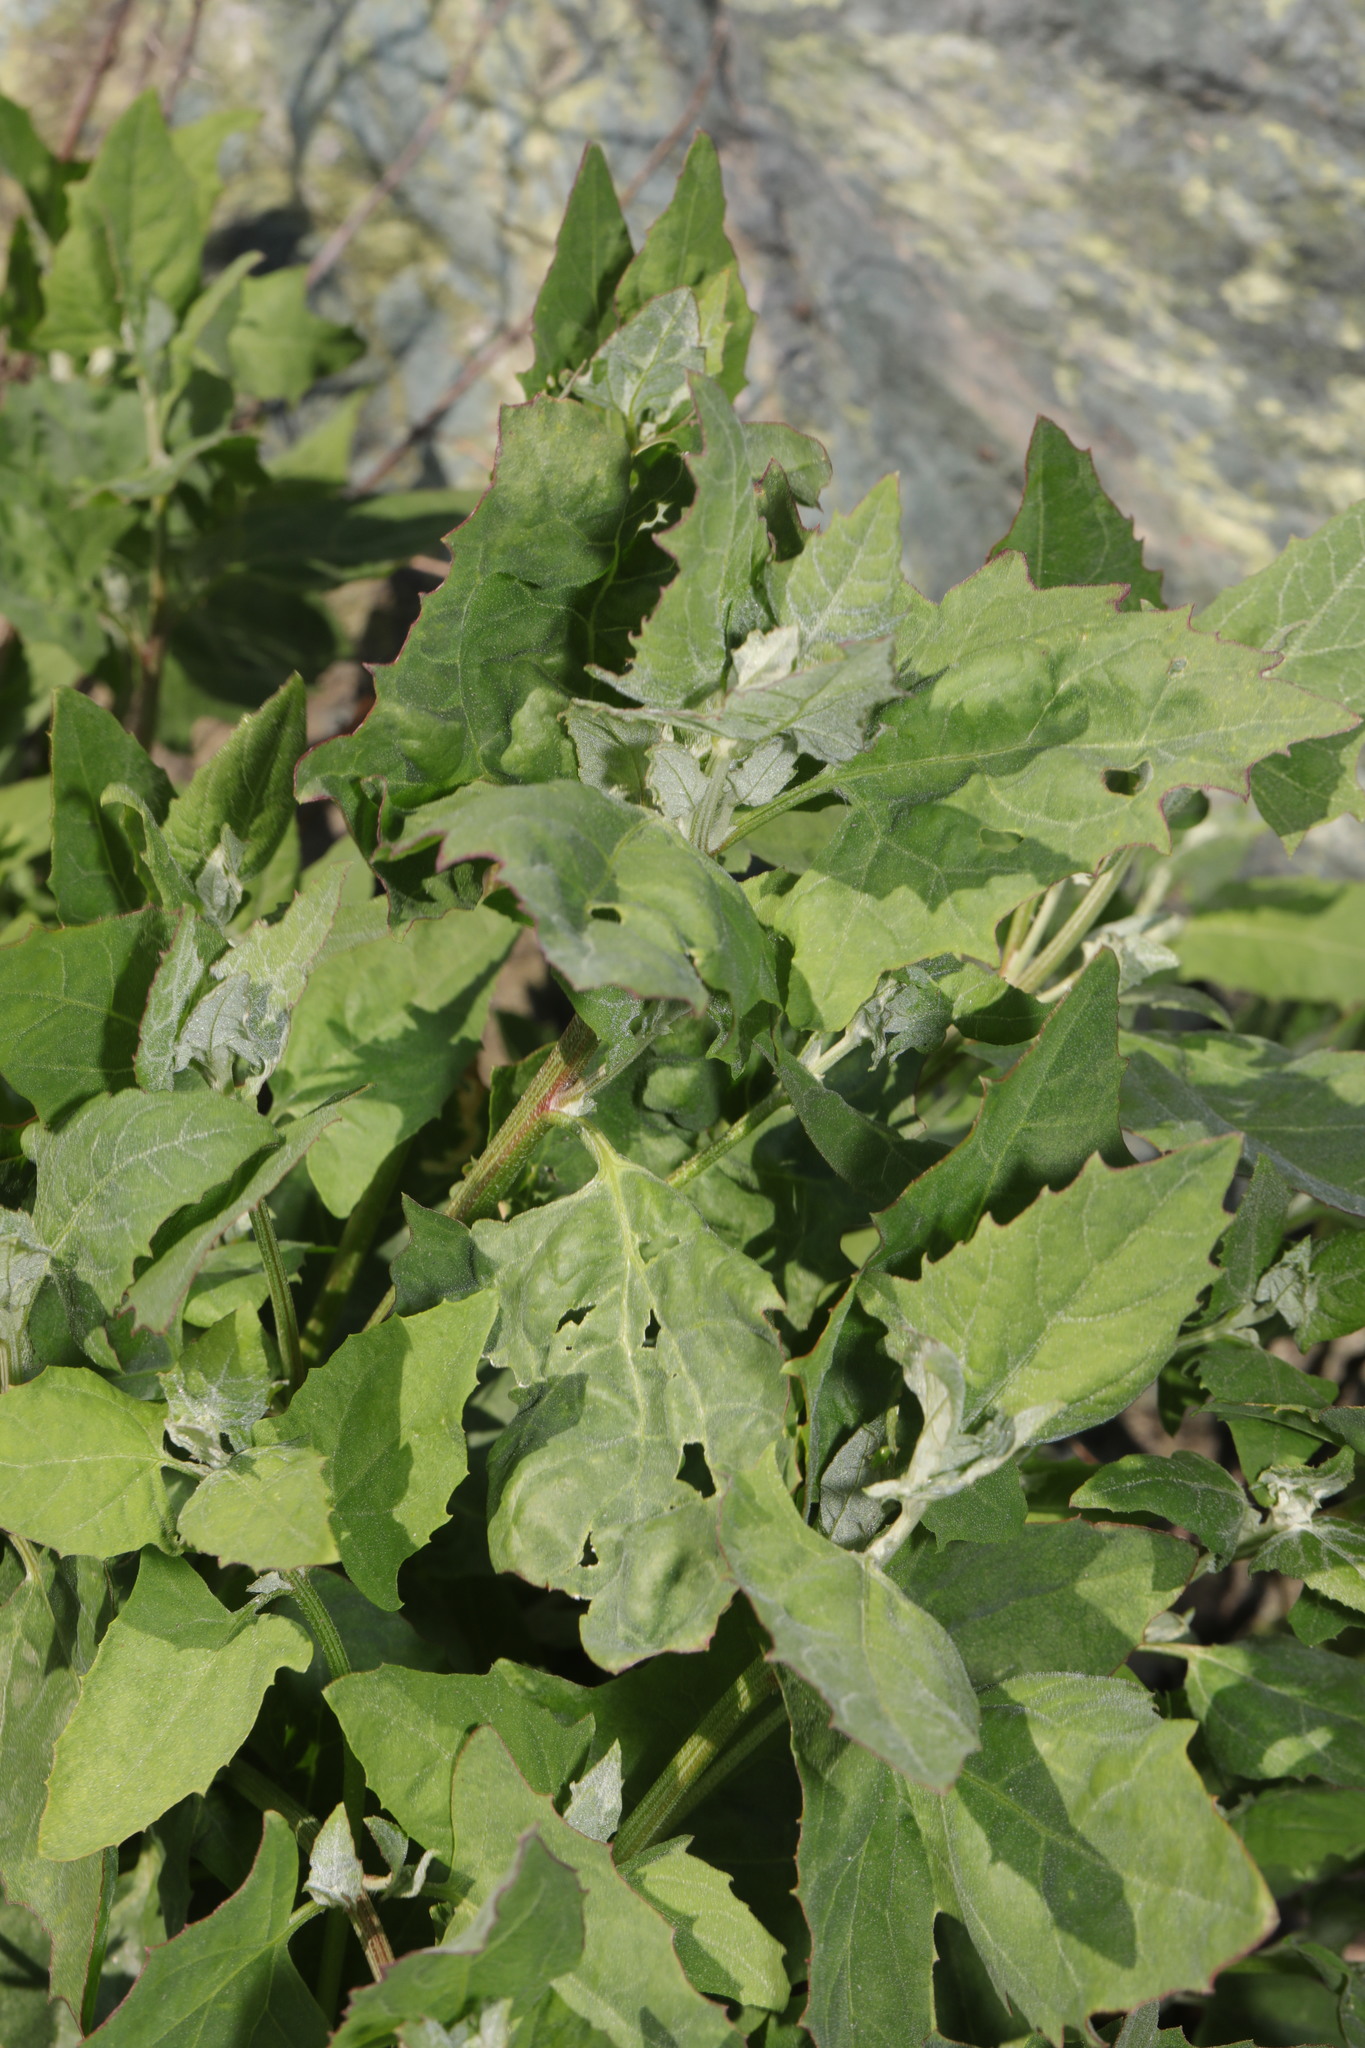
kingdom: Plantae
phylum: Tracheophyta
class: Magnoliopsida
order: Caryophyllales
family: Amaranthaceae
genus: Atriplex
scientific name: Atriplex prostrata
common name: Spear-leaved orache
